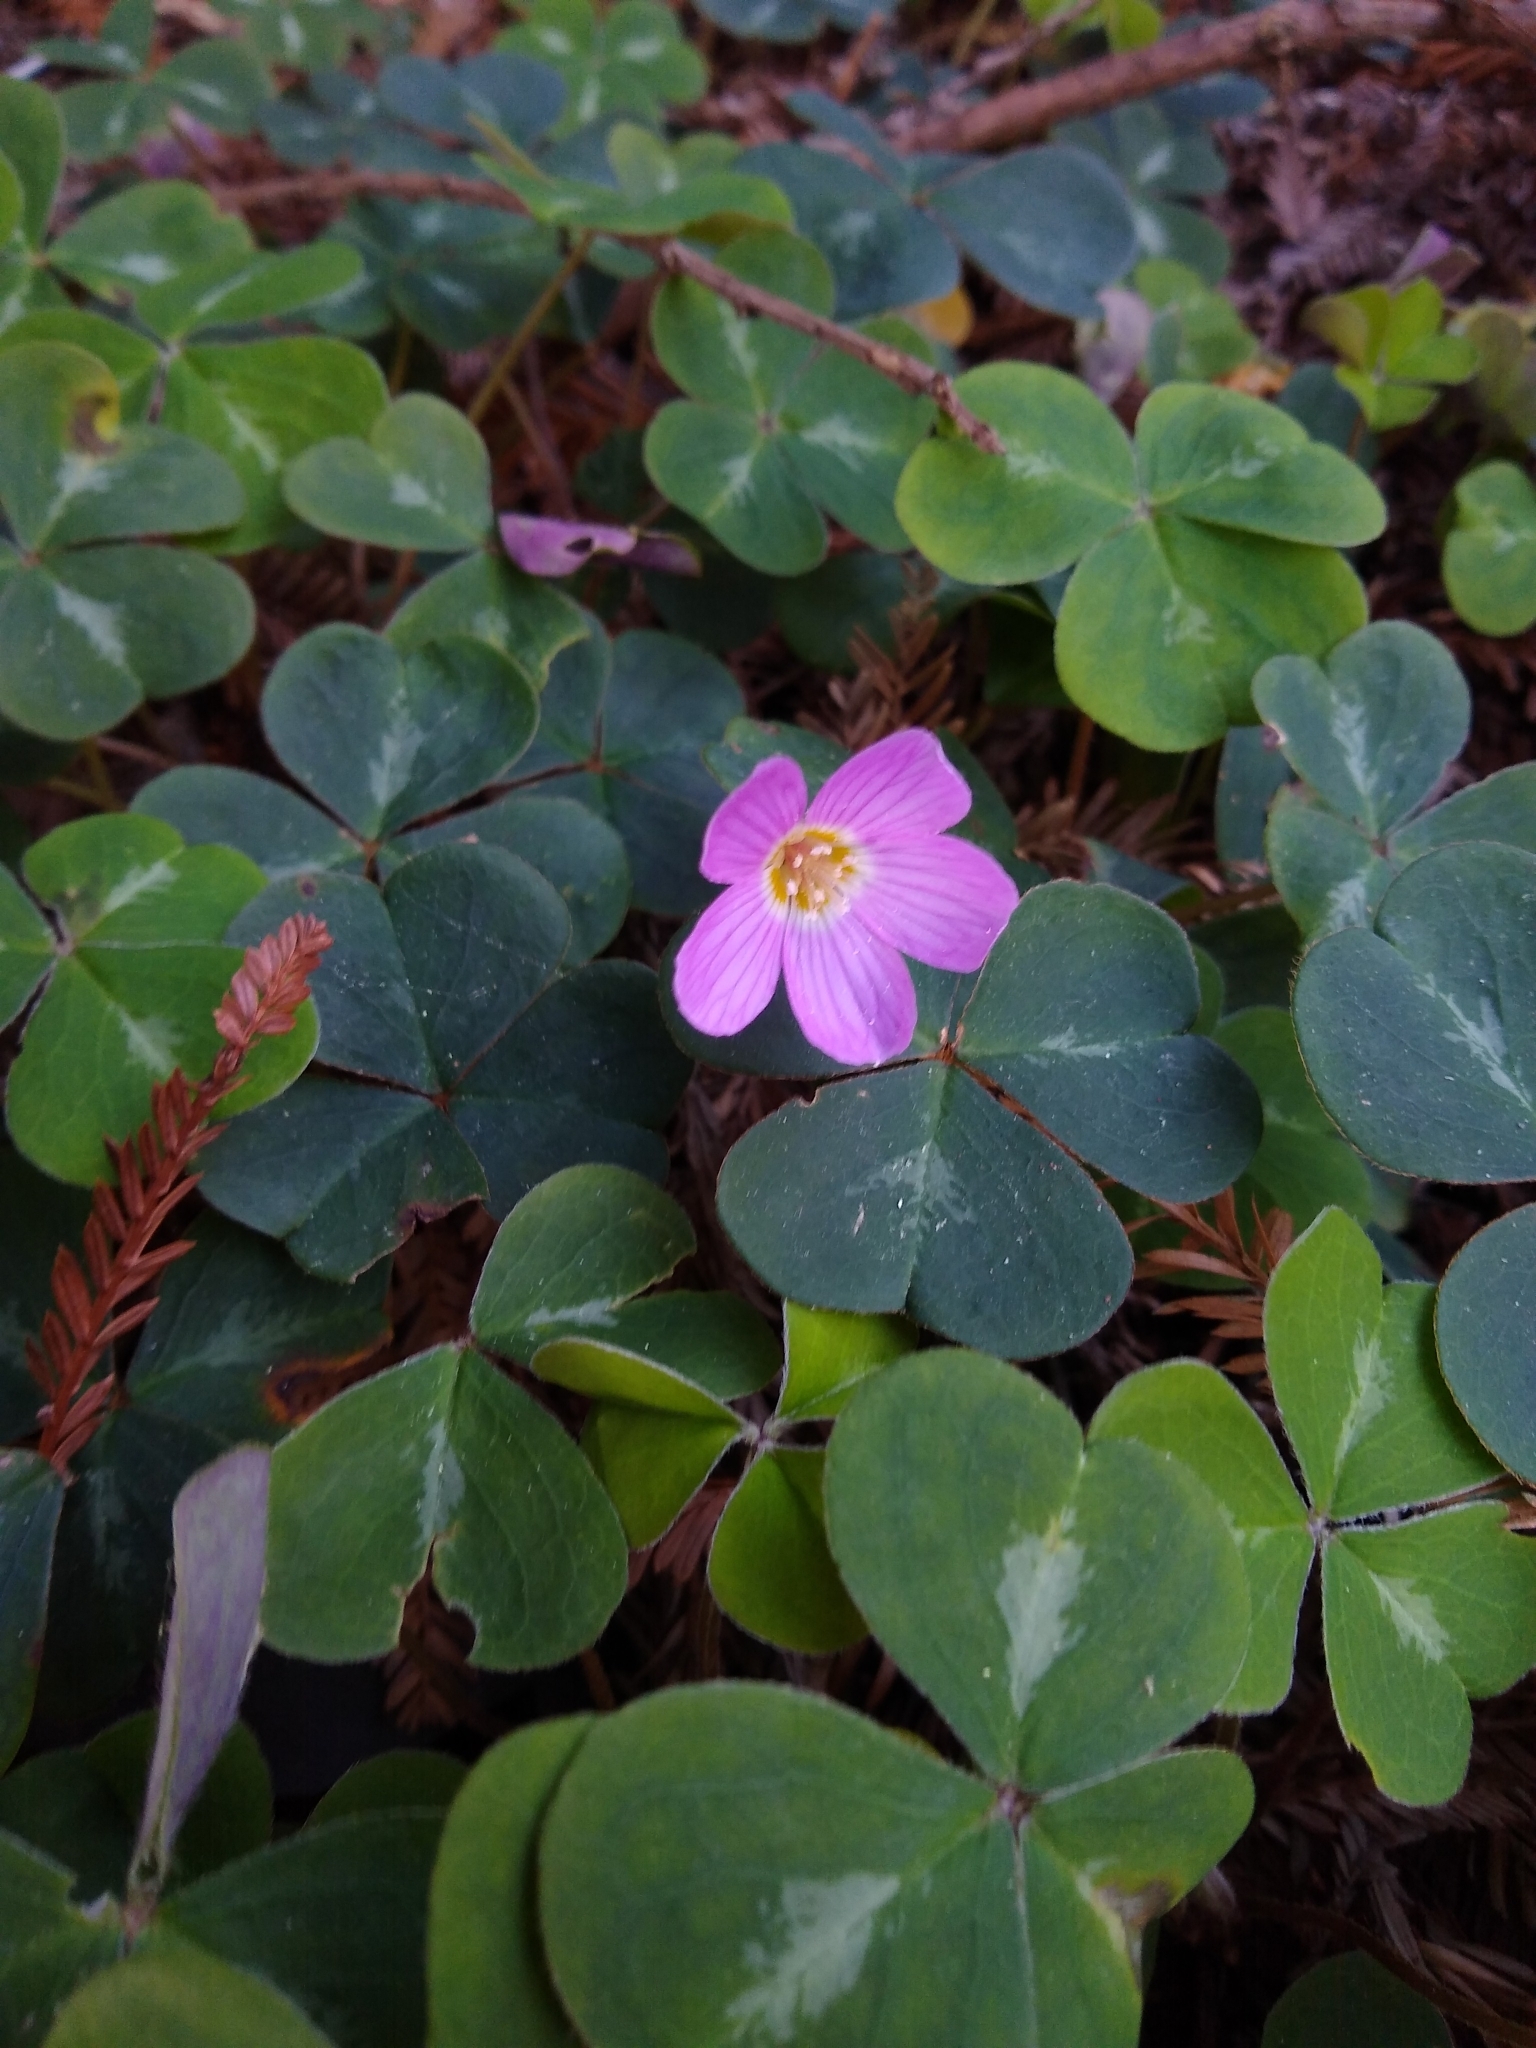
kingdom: Plantae
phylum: Tracheophyta
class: Magnoliopsida
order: Oxalidales
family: Oxalidaceae
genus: Oxalis
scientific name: Oxalis oregana
